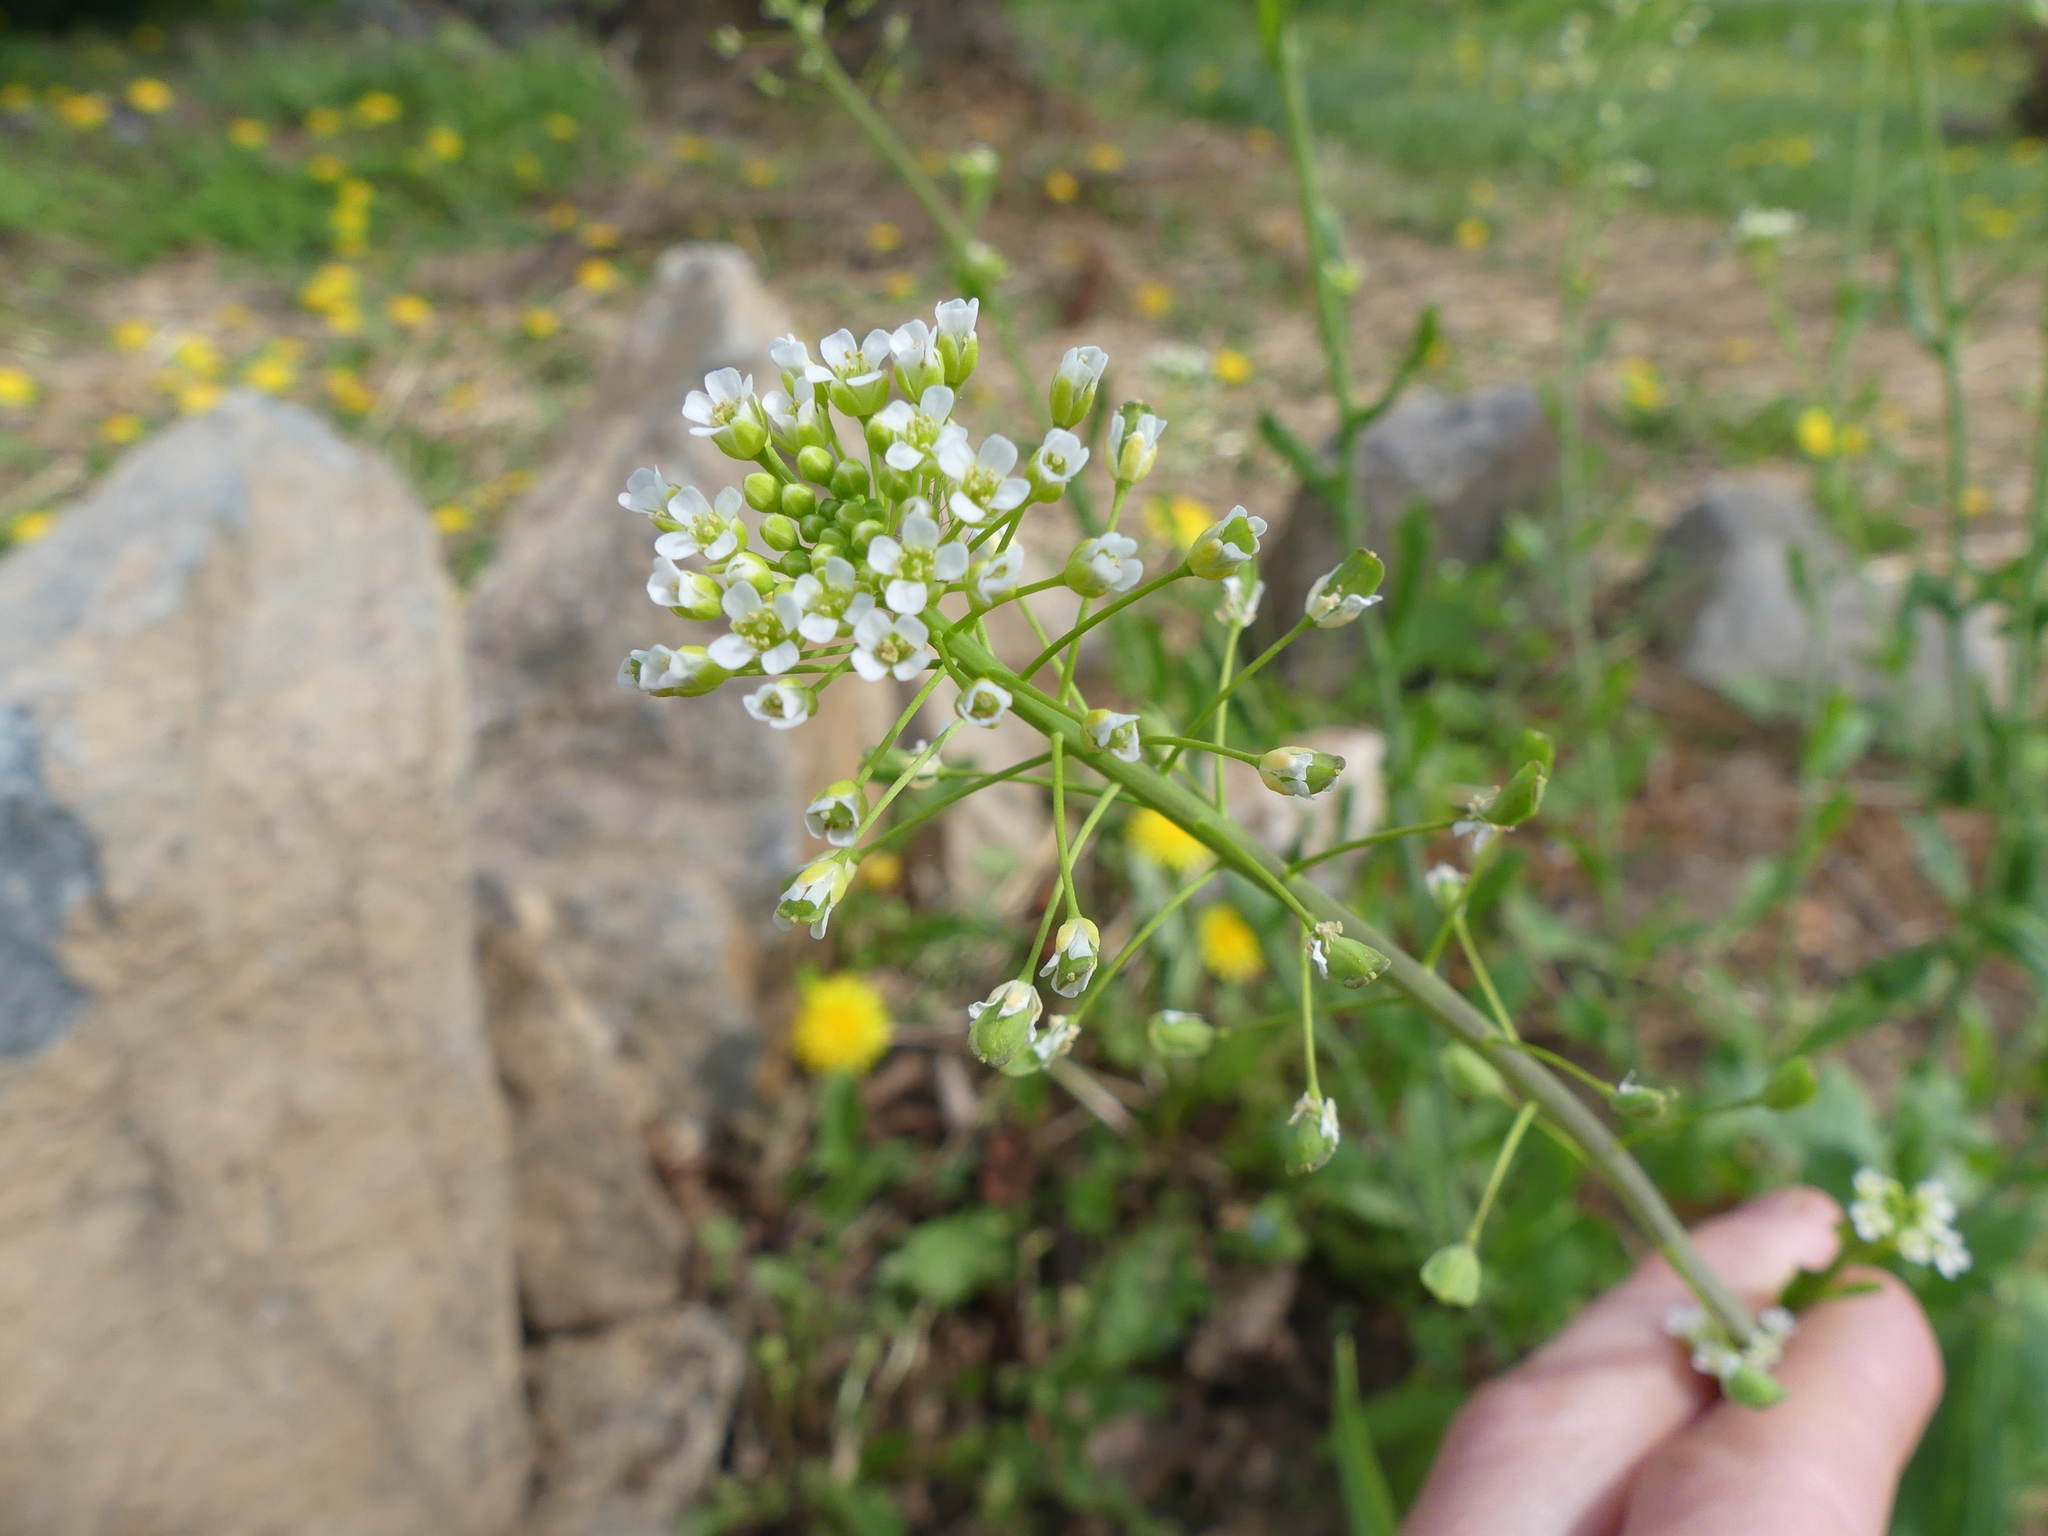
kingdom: Plantae
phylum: Tracheophyta
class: Magnoliopsida
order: Brassicales
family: Brassicaceae
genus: Mummenhoffia
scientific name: Mummenhoffia alliacea
